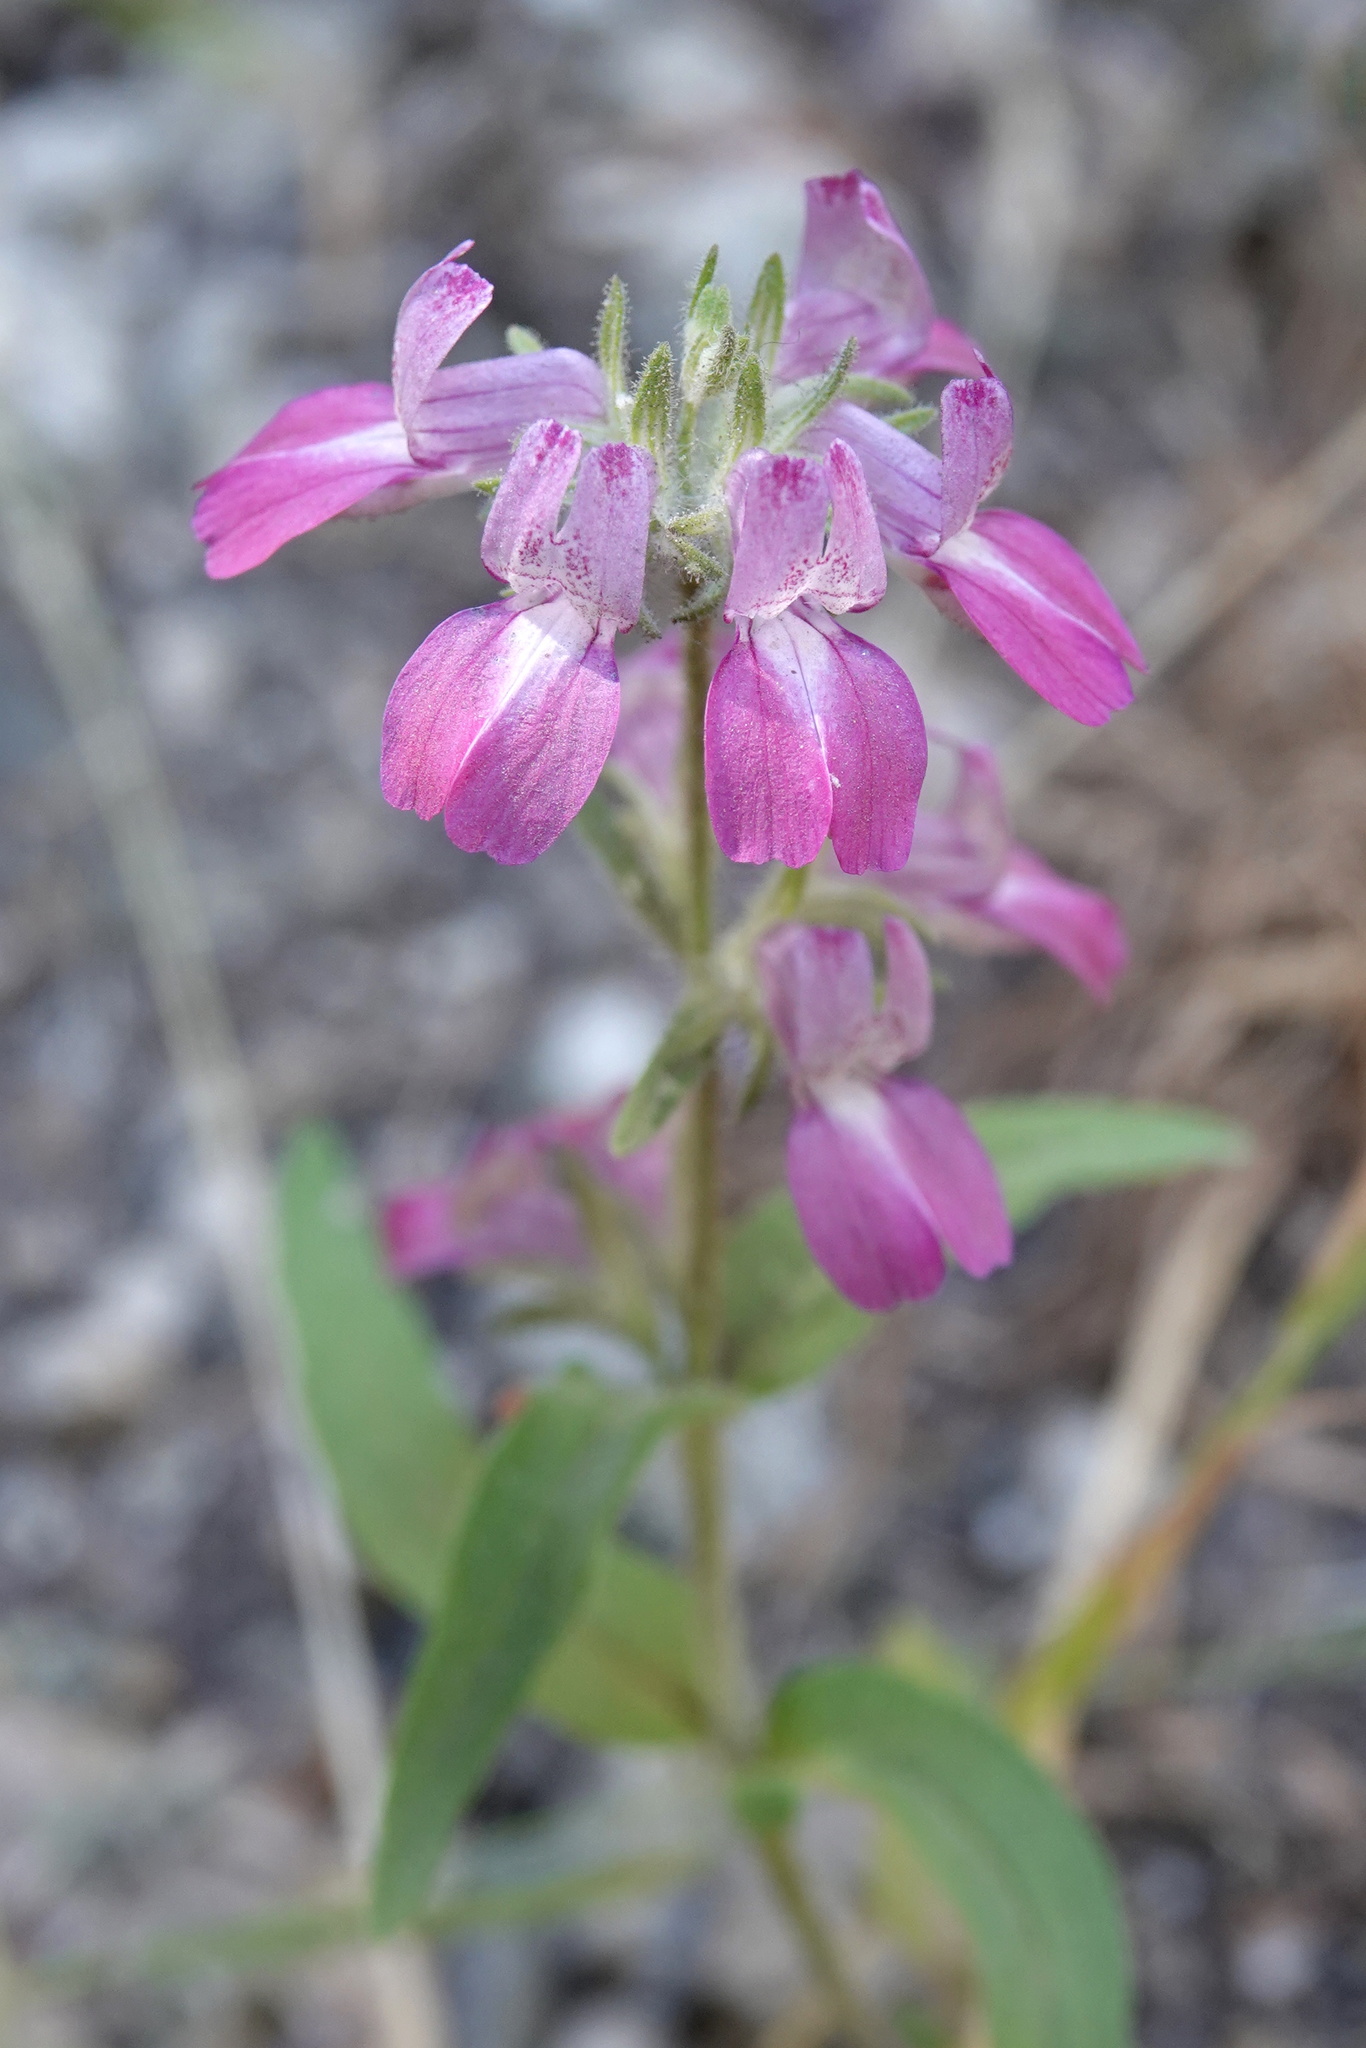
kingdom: Plantae
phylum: Tracheophyta
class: Magnoliopsida
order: Lamiales
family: Plantaginaceae
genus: Collinsia
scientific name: Collinsia heterophylla
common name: Chinese-houses
